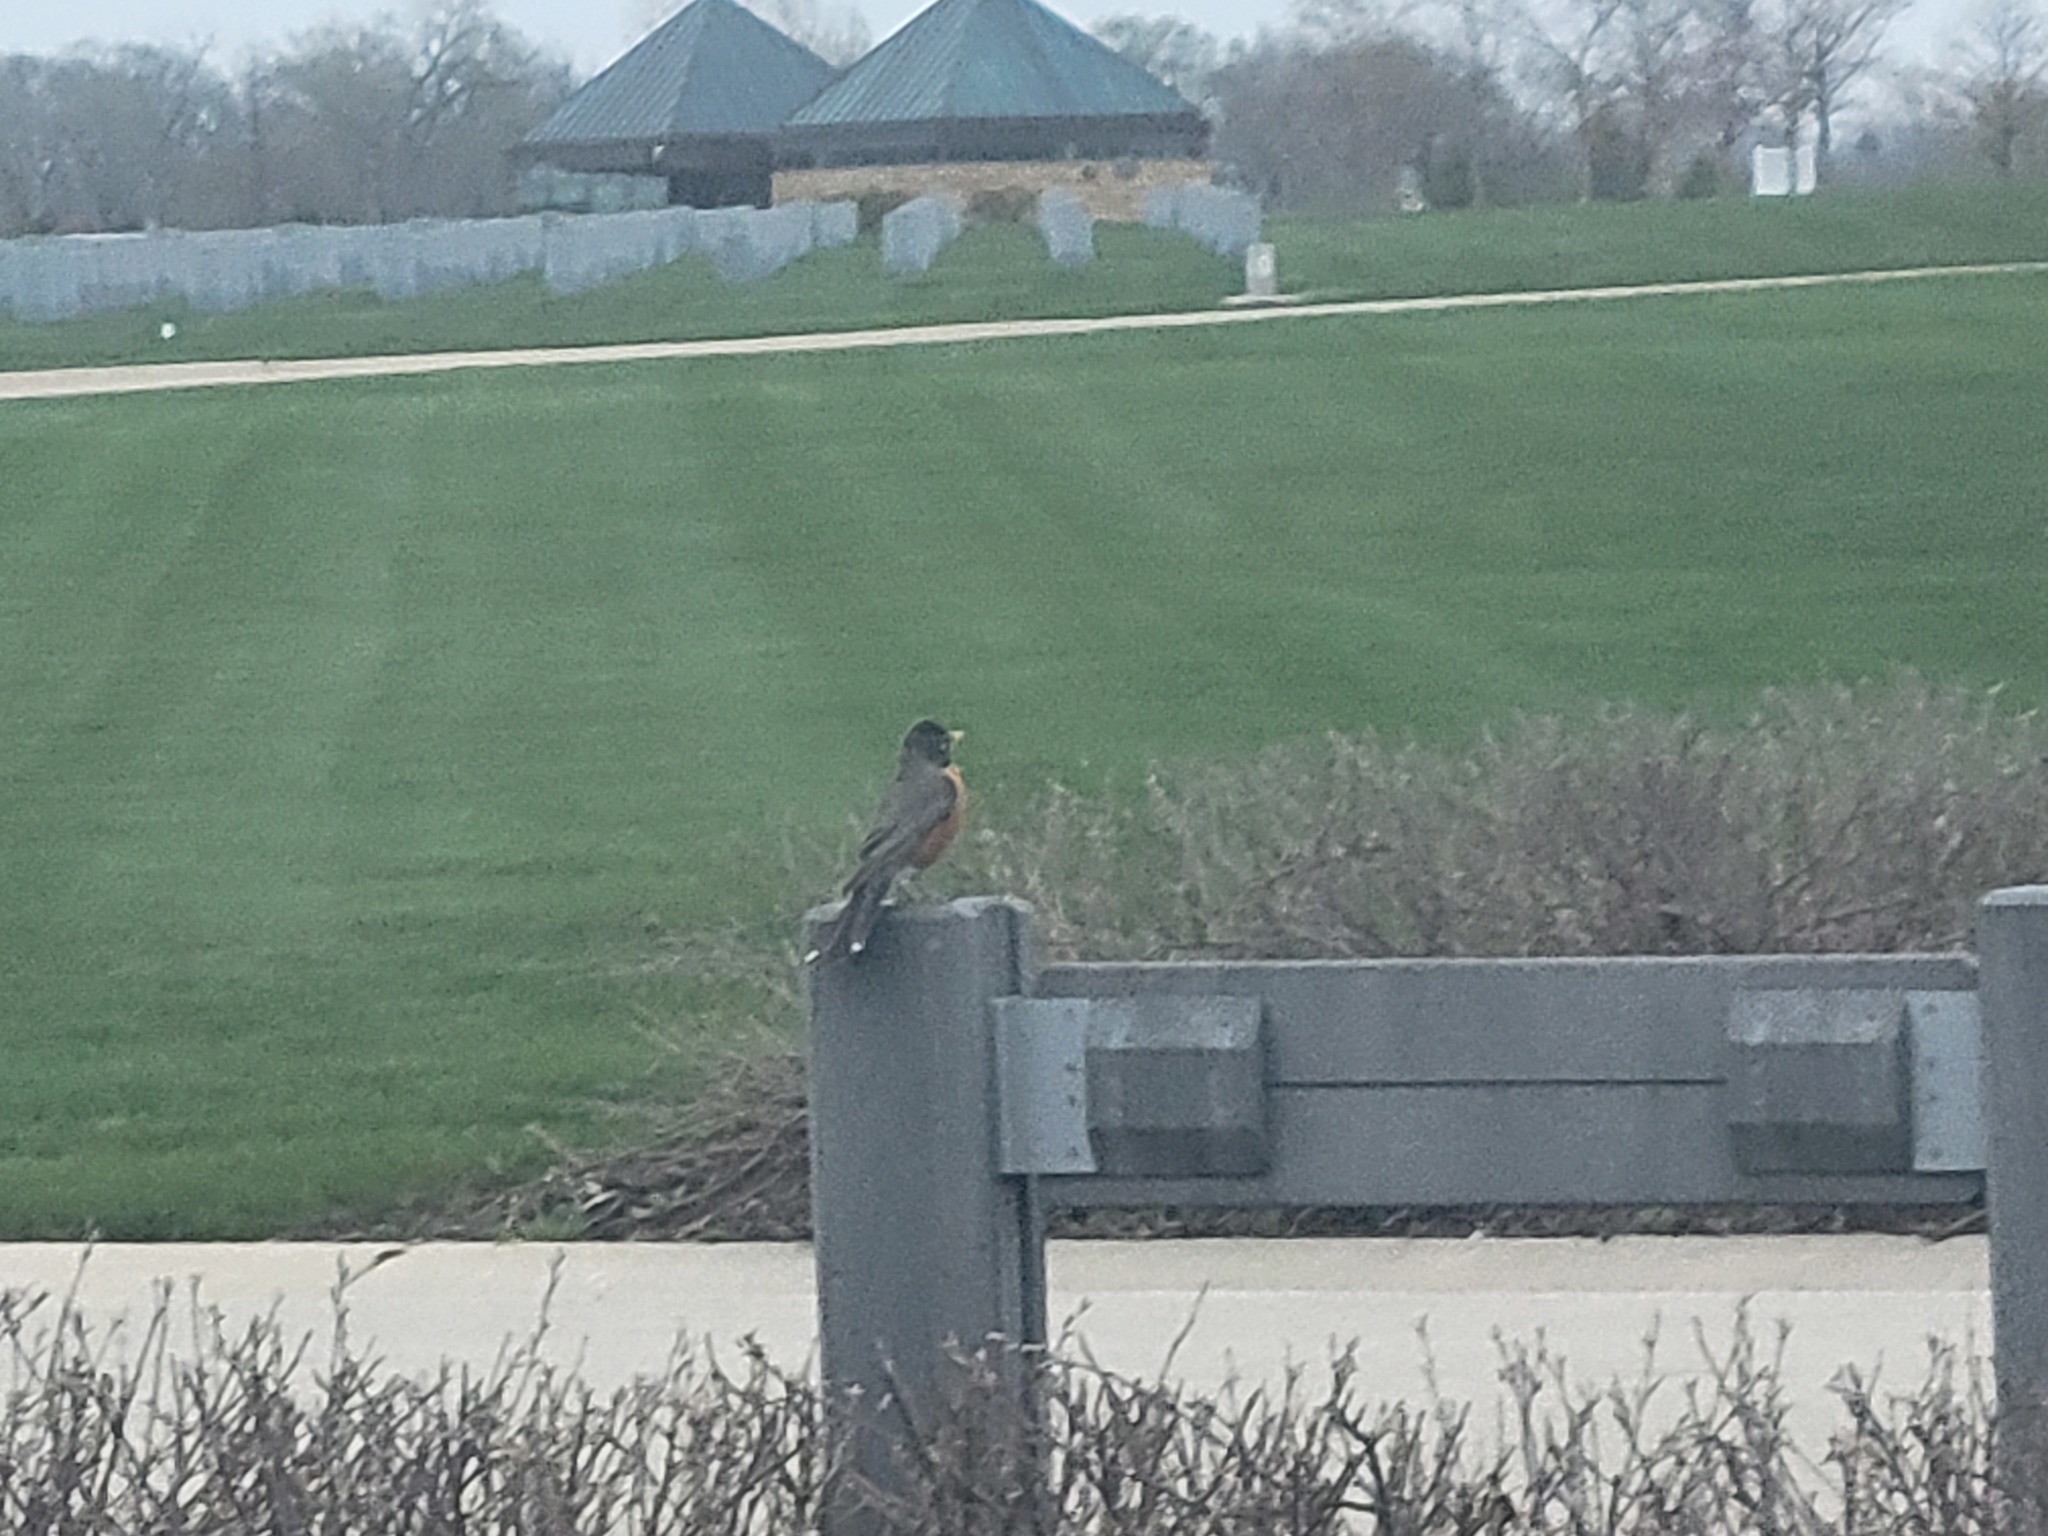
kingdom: Animalia
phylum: Chordata
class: Aves
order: Passeriformes
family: Turdidae
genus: Turdus
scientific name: Turdus migratorius
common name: American robin
